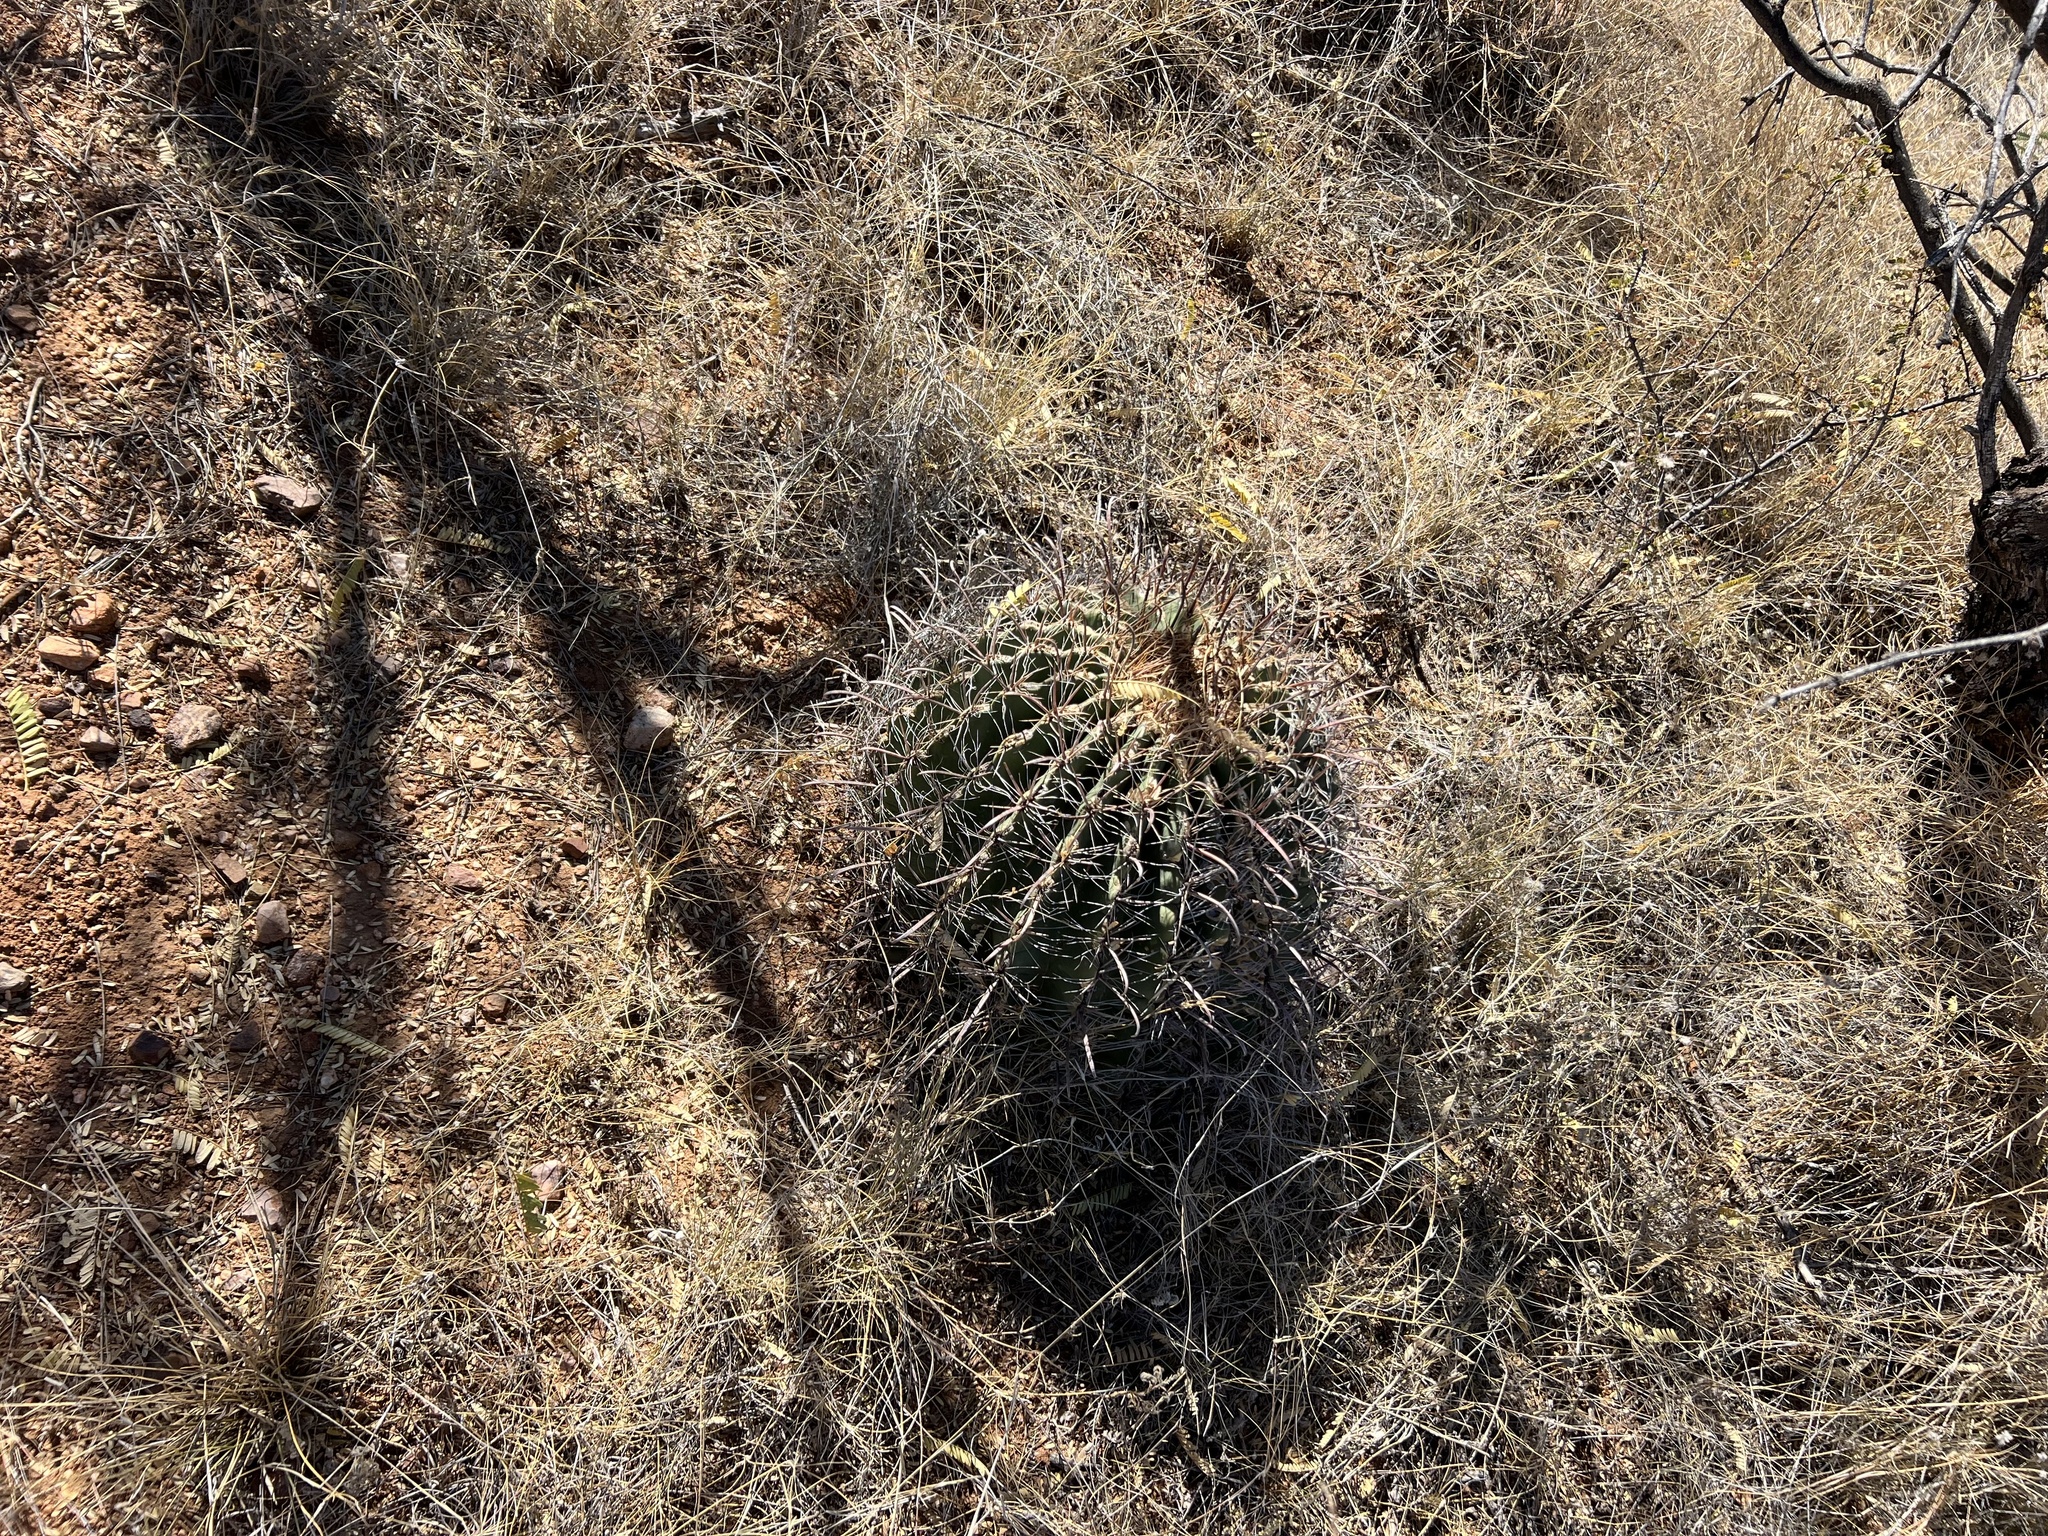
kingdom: Plantae
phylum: Tracheophyta
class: Magnoliopsida
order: Caryophyllales
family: Cactaceae
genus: Ferocactus
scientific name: Ferocactus wislizeni
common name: Candy barrel cactus
